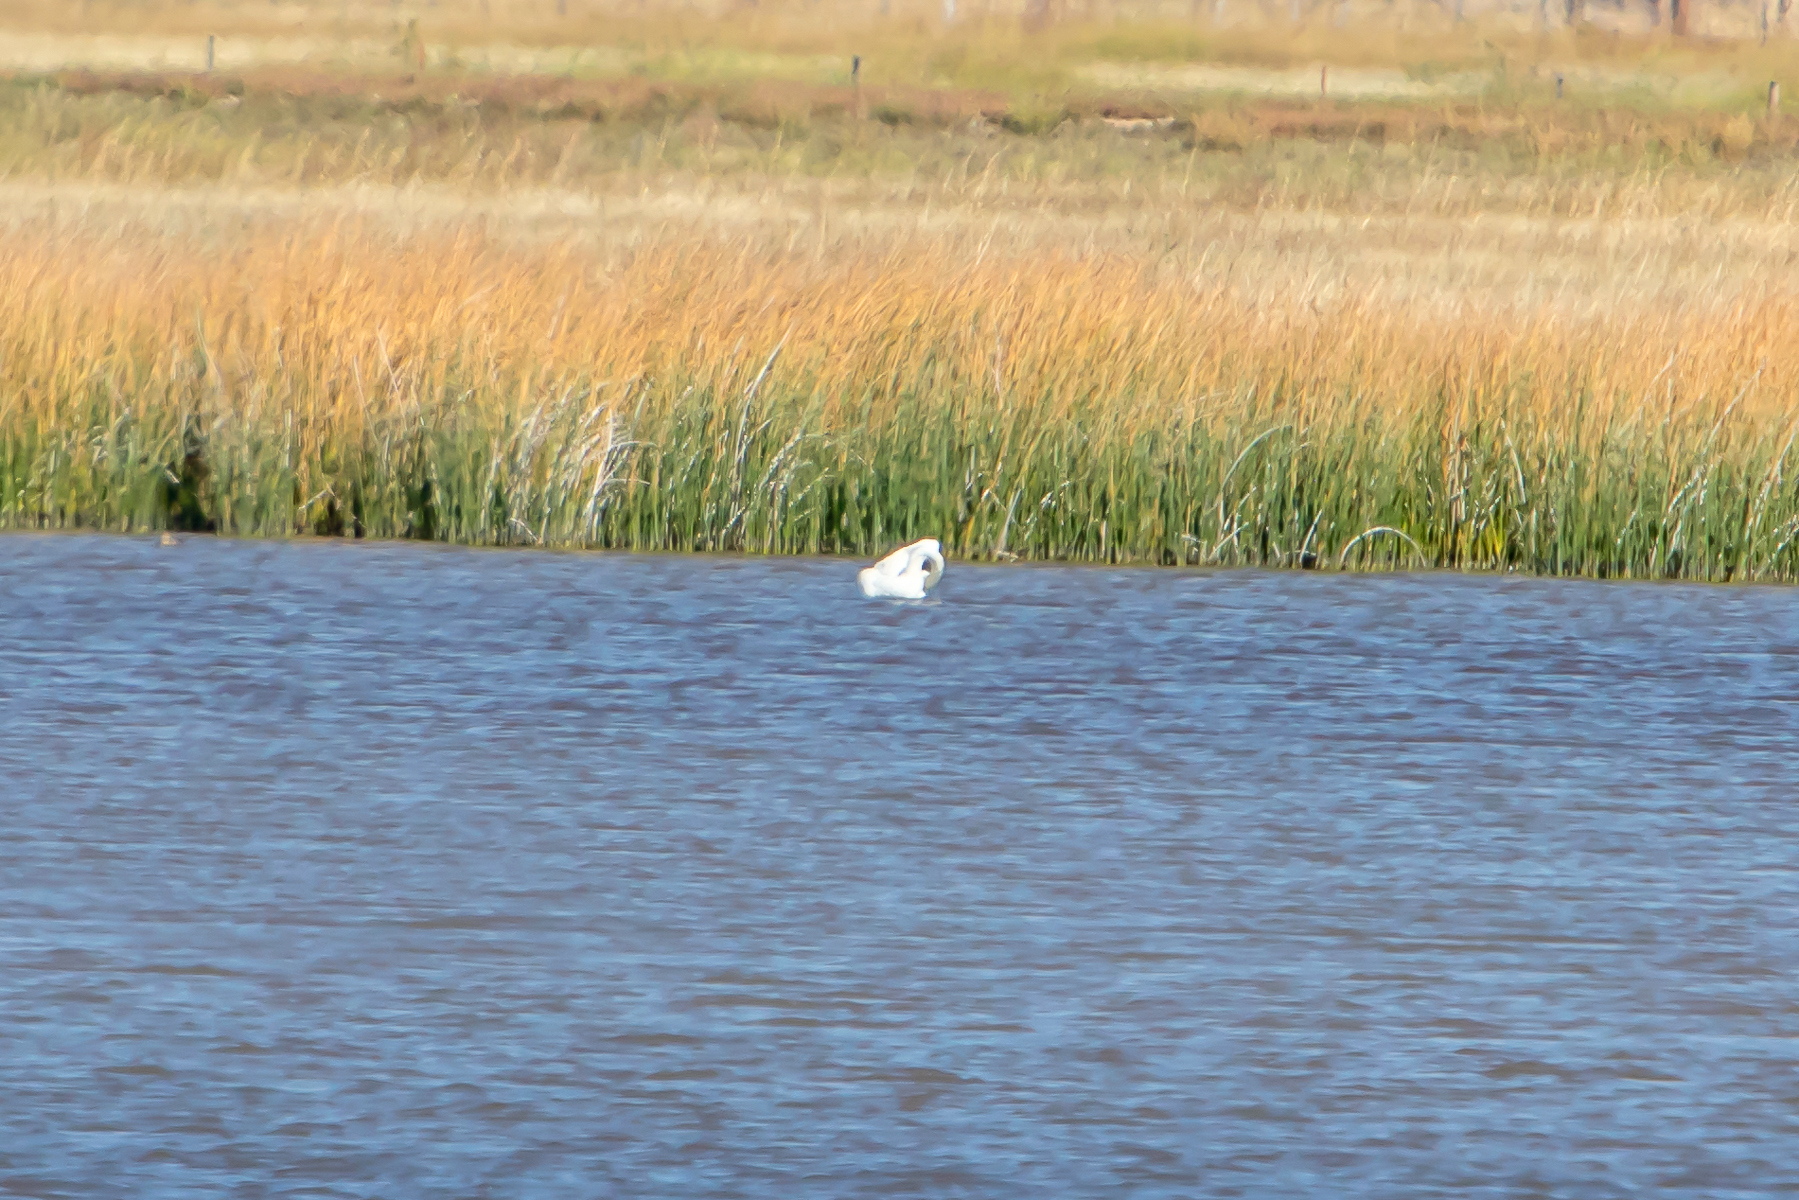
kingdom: Animalia
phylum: Chordata
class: Aves
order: Anseriformes
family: Anatidae
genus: Cygnus
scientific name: Cygnus buccinator
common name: Trumpeter swan
